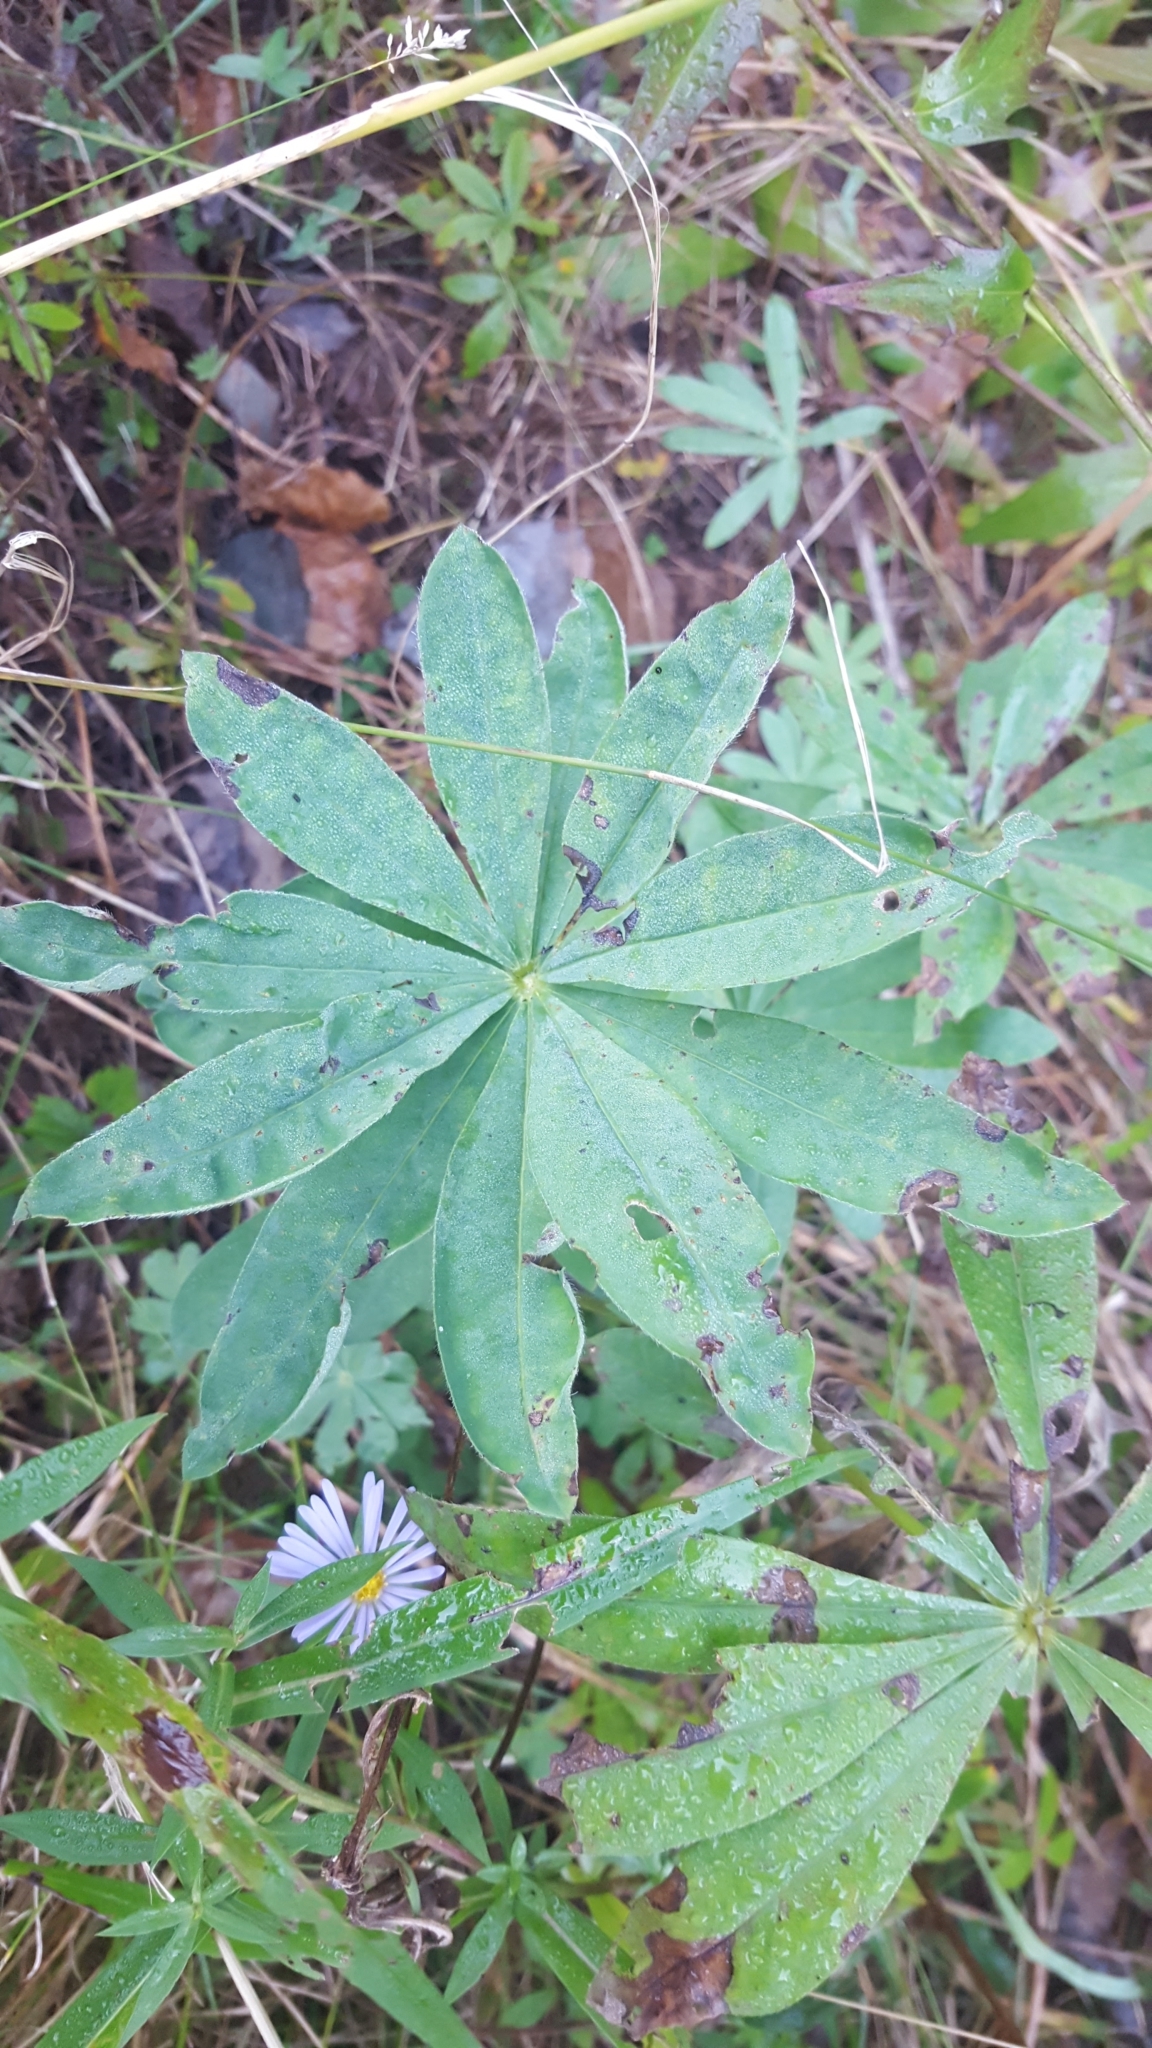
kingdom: Plantae
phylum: Tracheophyta
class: Magnoliopsida
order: Fabales
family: Fabaceae
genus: Lupinus
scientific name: Lupinus polyphyllus
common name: Garden lupin
